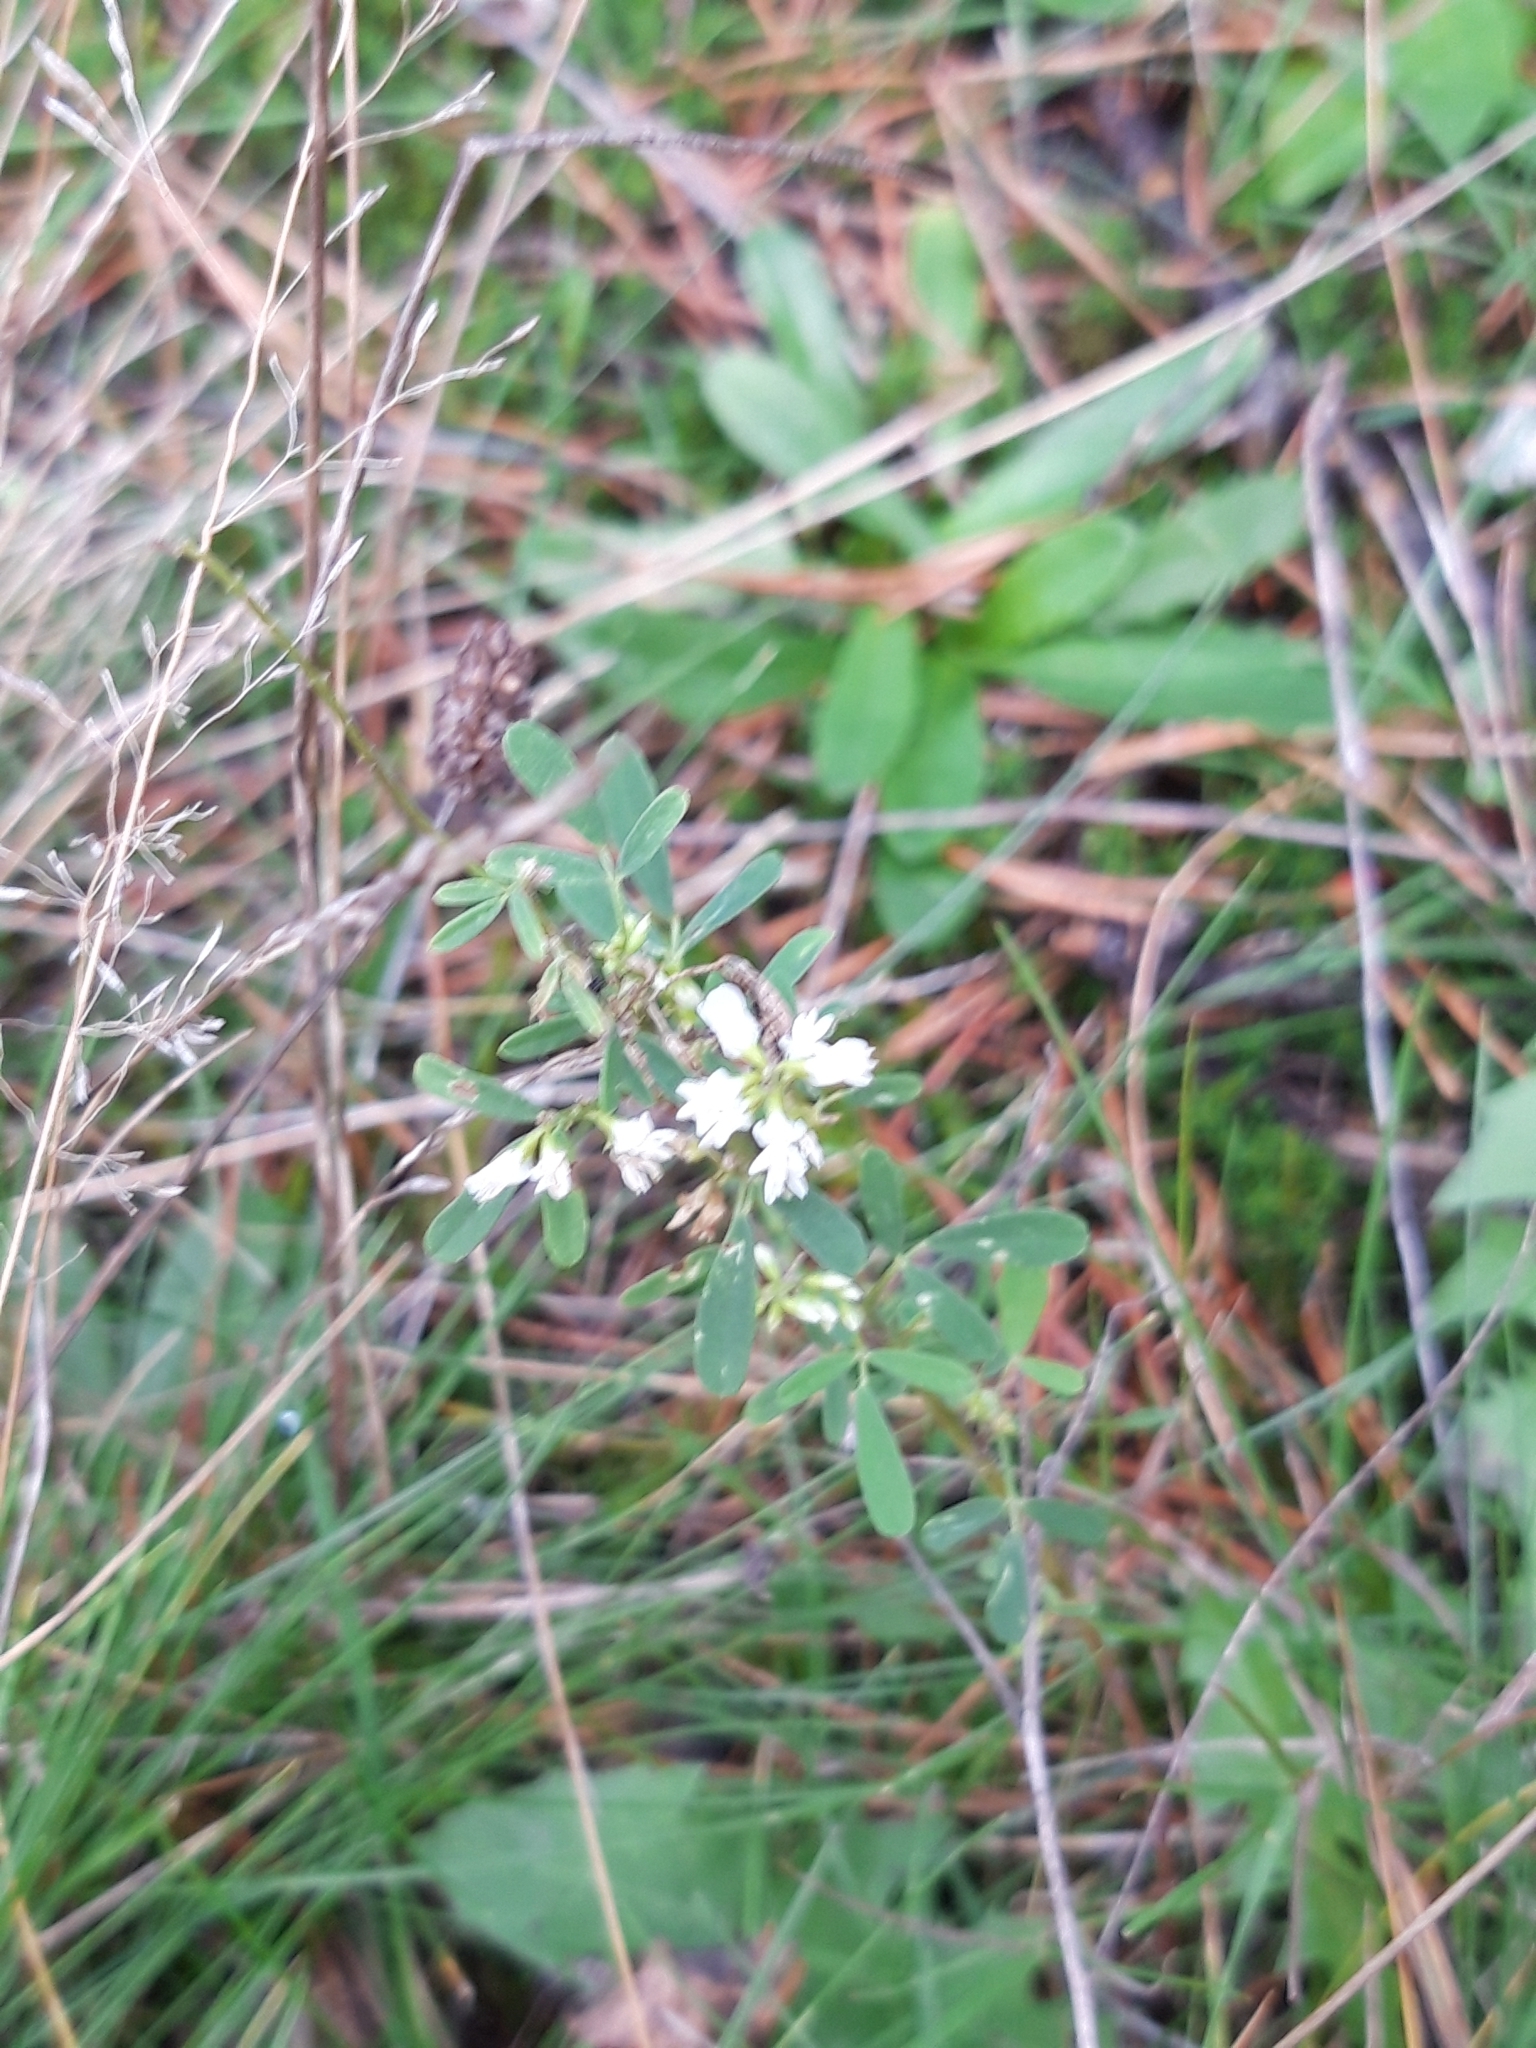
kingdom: Plantae
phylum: Tracheophyta
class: Magnoliopsida
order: Fabales
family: Fabaceae
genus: Melilotus
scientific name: Melilotus albus
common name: White melilot
